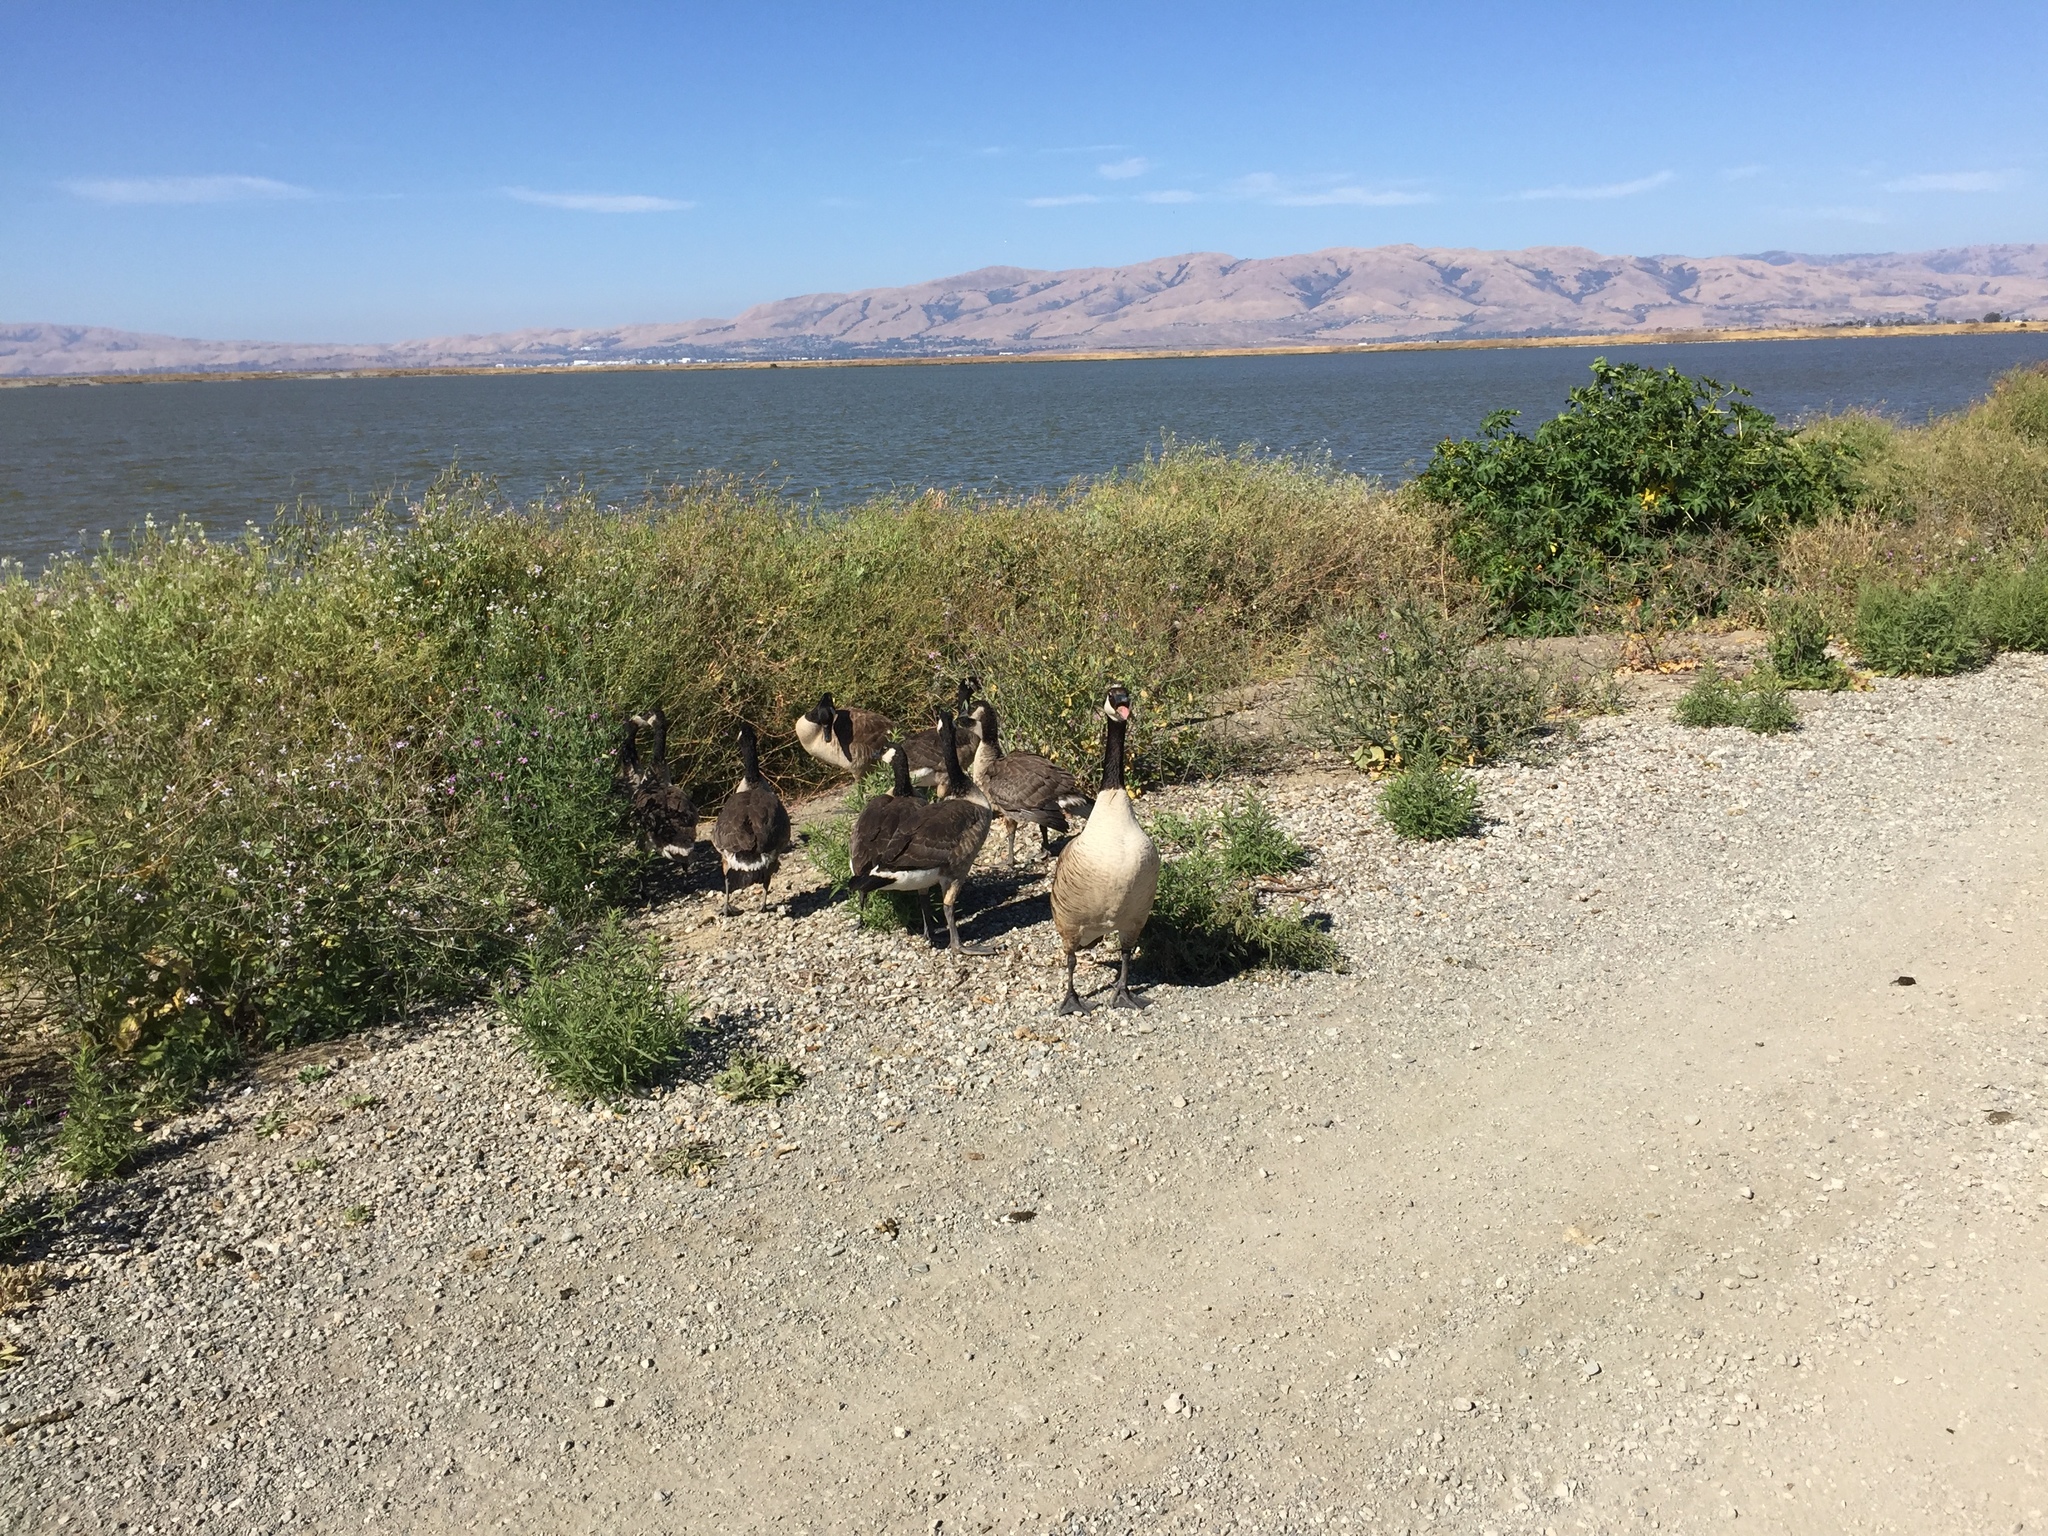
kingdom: Animalia
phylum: Chordata
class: Aves
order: Anseriformes
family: Anatidae
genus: Branta
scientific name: Branta canadensis
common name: Canada goose
